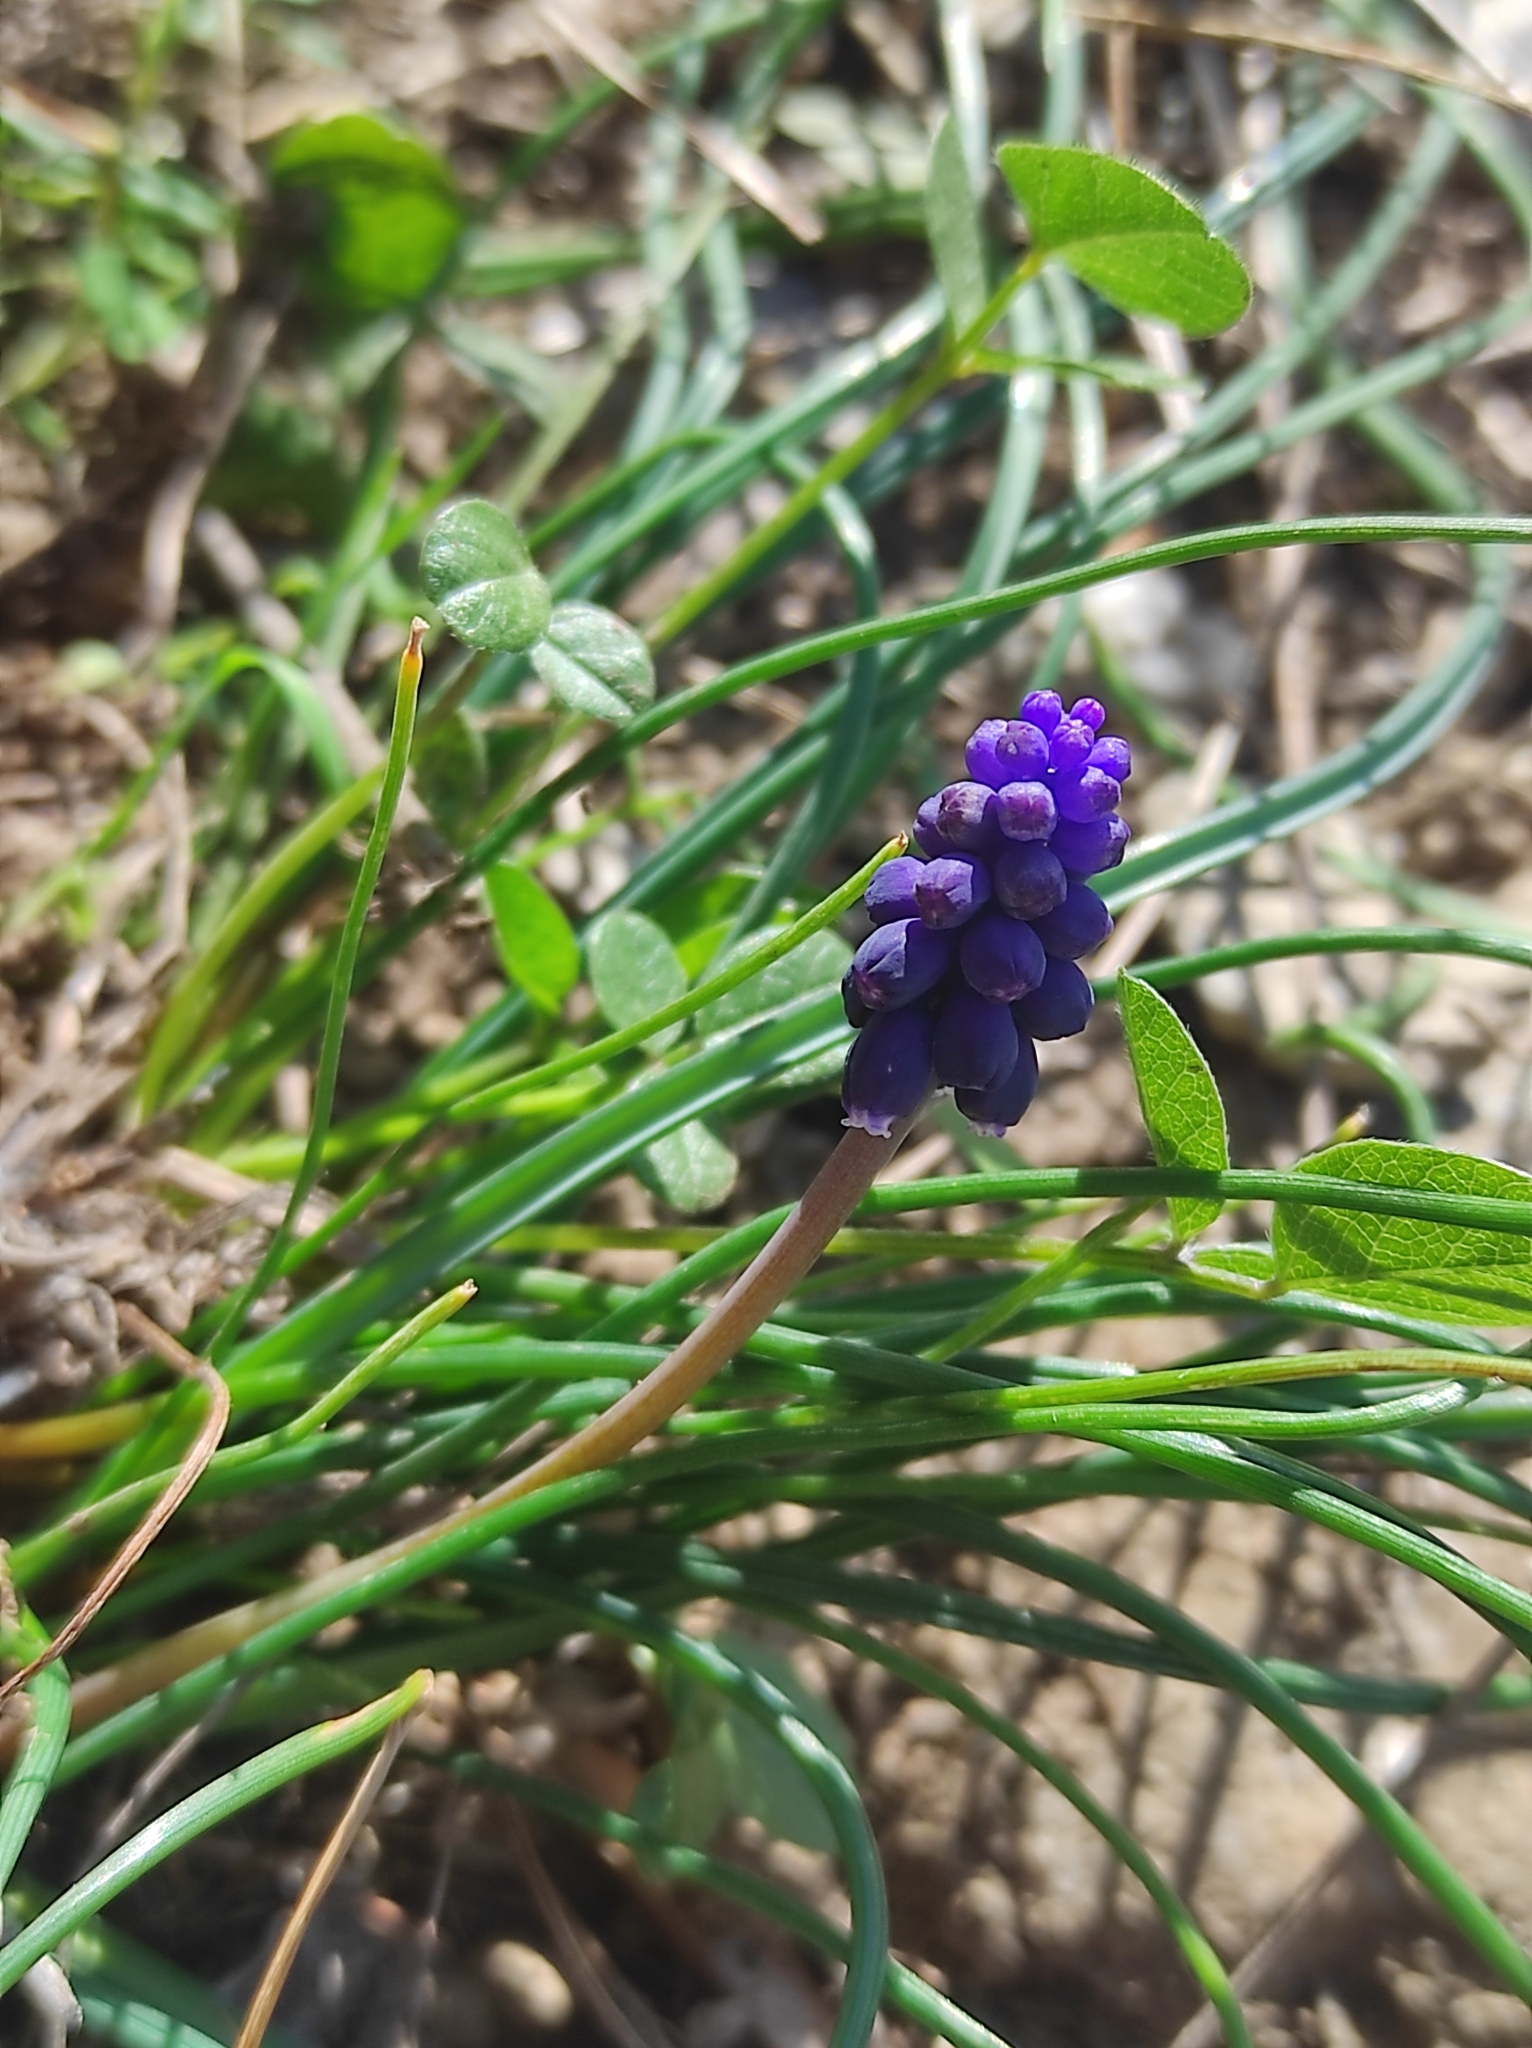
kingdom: Plantae
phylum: Tracheophyta
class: Liliopsida
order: Asparagales
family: Asparagaceae
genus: Muscari
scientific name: Muscari neglectum
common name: Grape-hyacinth
